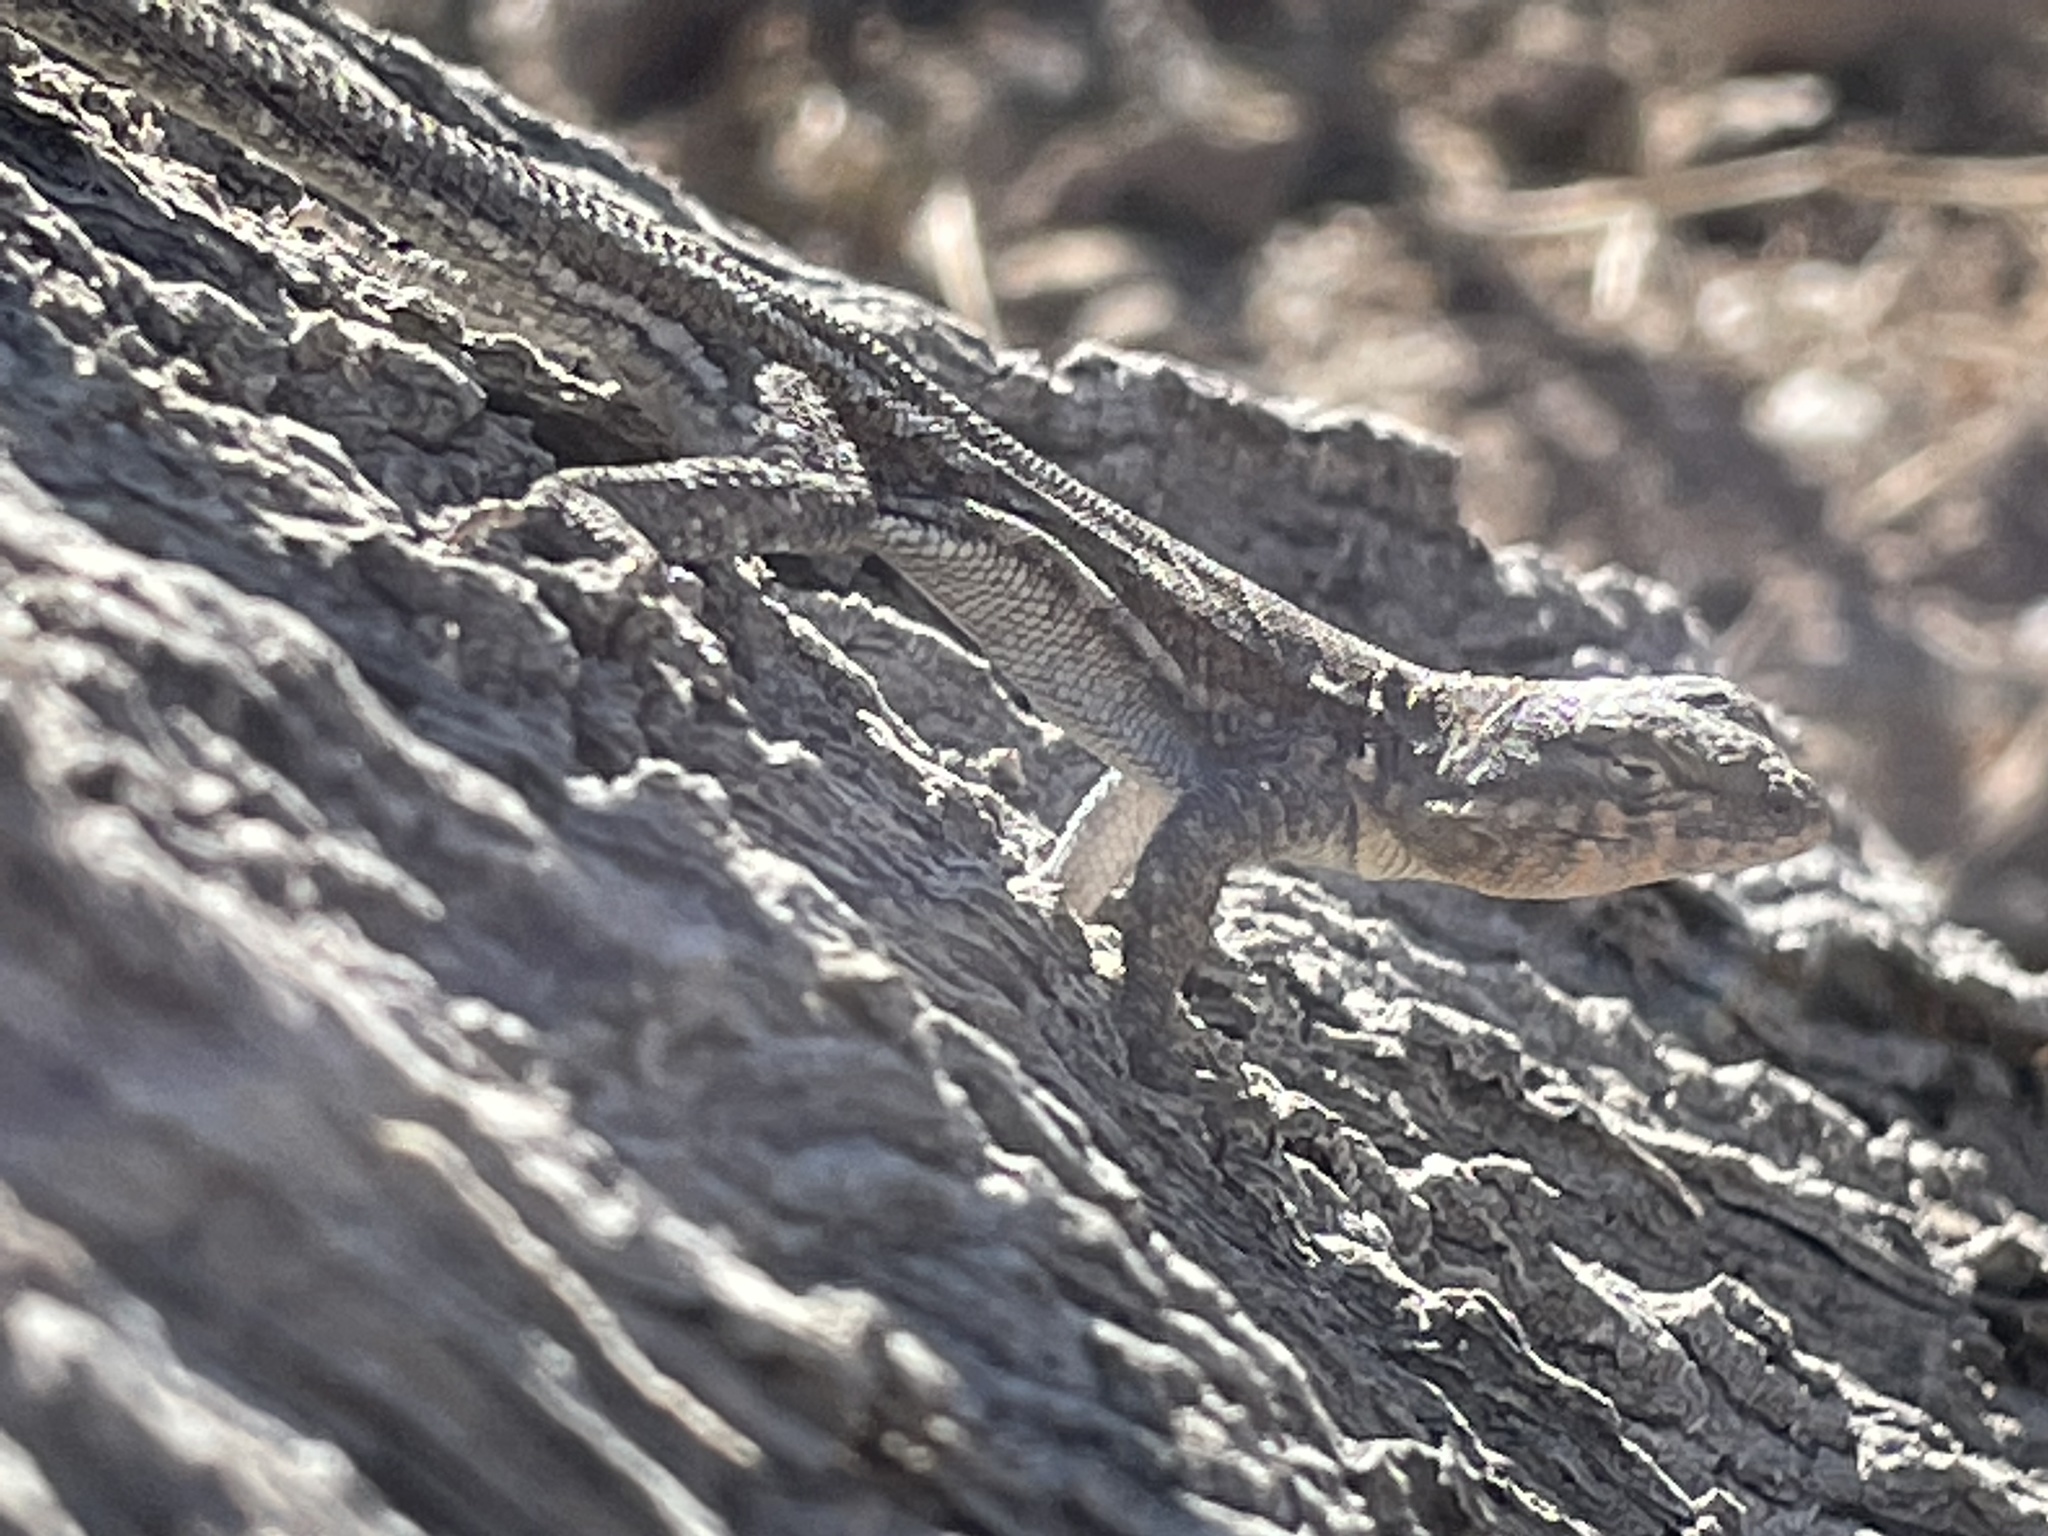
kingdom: Animalia
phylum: Chordata
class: Squamata
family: Phrynosomatidae
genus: Uta
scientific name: Uta stansburiana
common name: Side-blotched lizard
